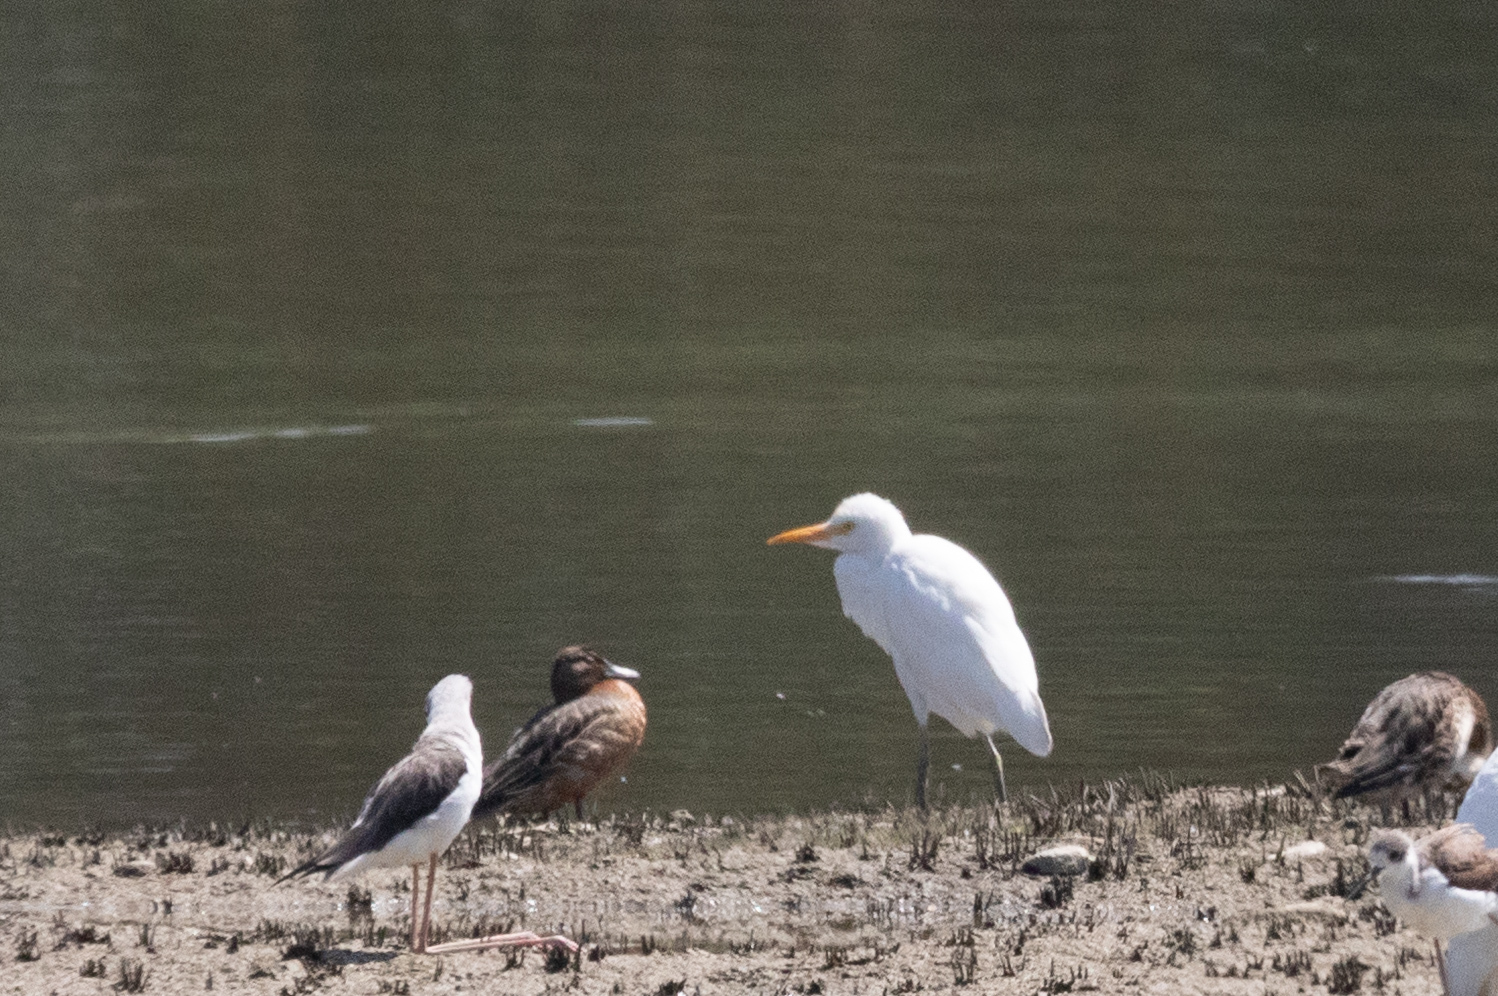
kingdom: Animalia
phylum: Chordata
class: Aves
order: Pelecaniformes
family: Ardeidae
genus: Bubulcus
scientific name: Bubulcus coromandus
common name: Eastern cattle egret
